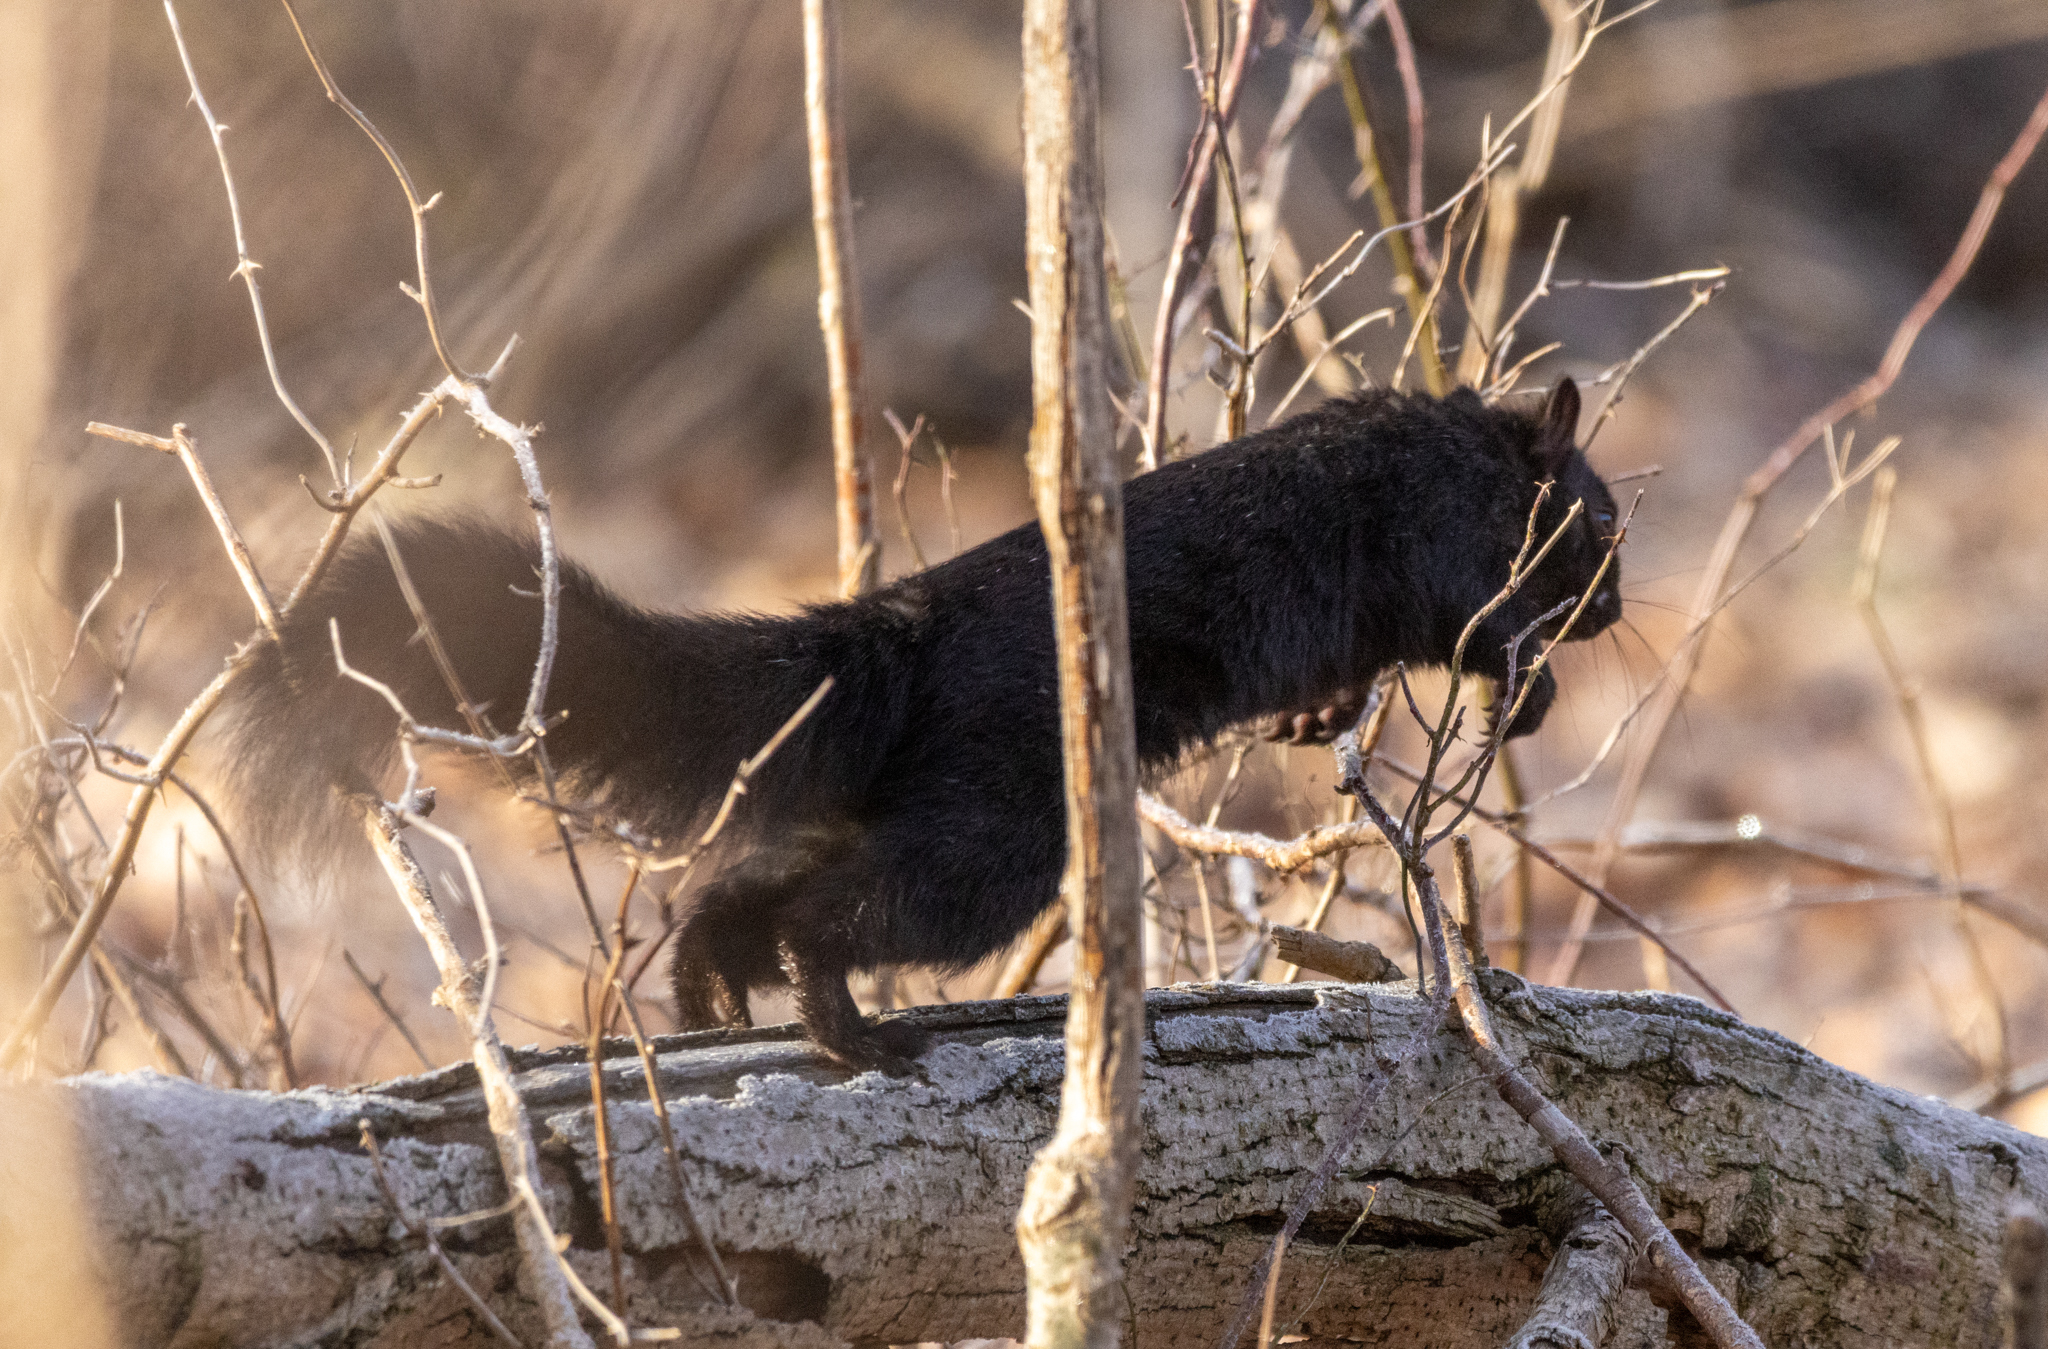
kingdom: Animalia
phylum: Chordata
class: Mammalia
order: Rodentia
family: Sciuridae
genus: Sciurus
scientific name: Sciurus carolinensis
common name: Eastern gray squirrel
